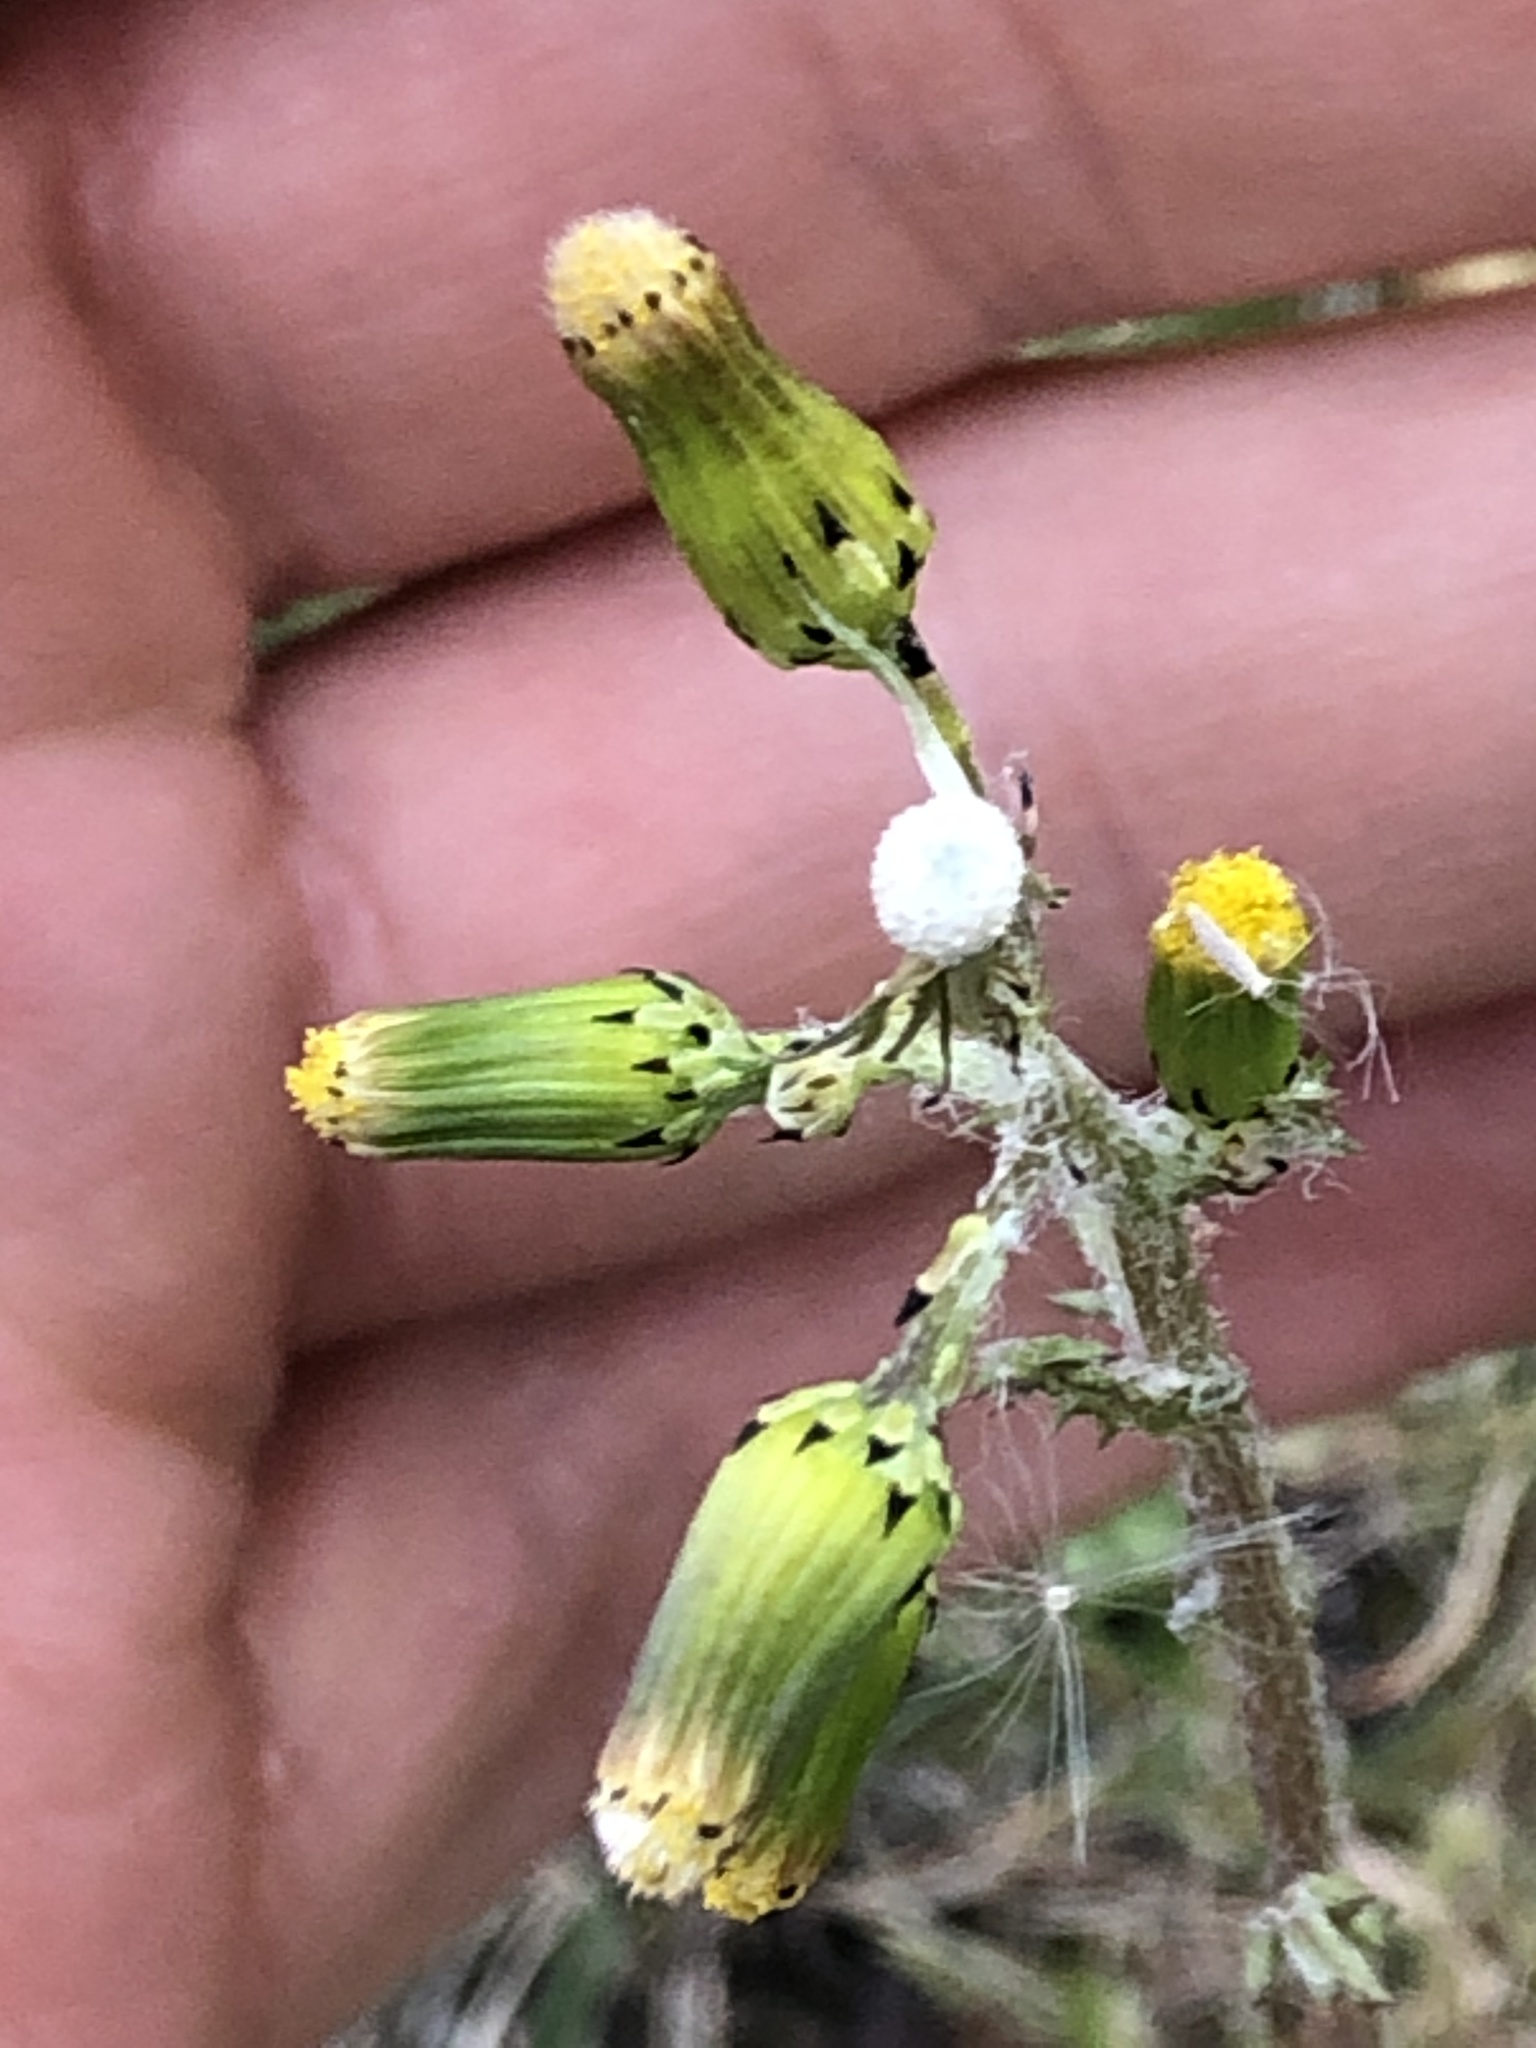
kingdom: Plantae
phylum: Tracheophyta
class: Magnoliopsida
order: Asterales
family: Asteraceae
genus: Senecio
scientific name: Senecio vulgaris
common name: Old-man-in-the-spring
